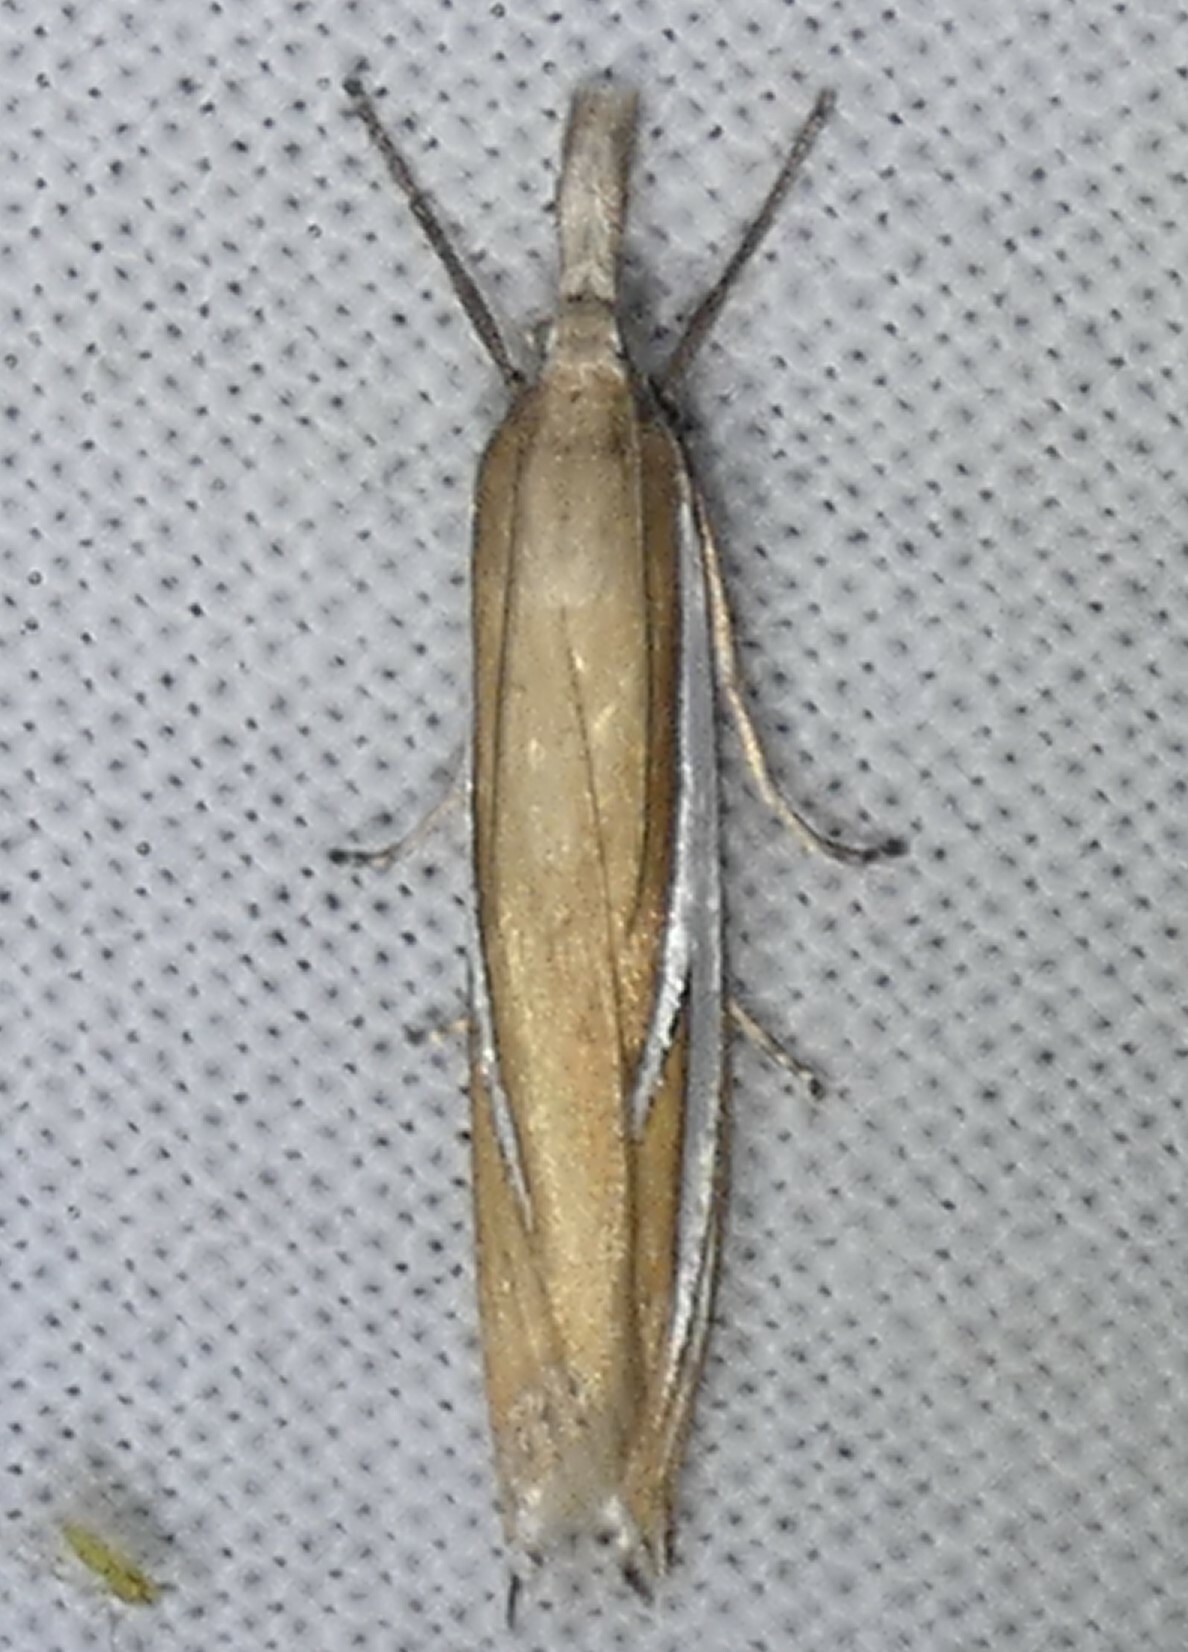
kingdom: Animalia
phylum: Arthropoda
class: Insecta
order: Lepidoptera
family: Crambidae
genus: Crambus
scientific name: Crambus satrapellus
